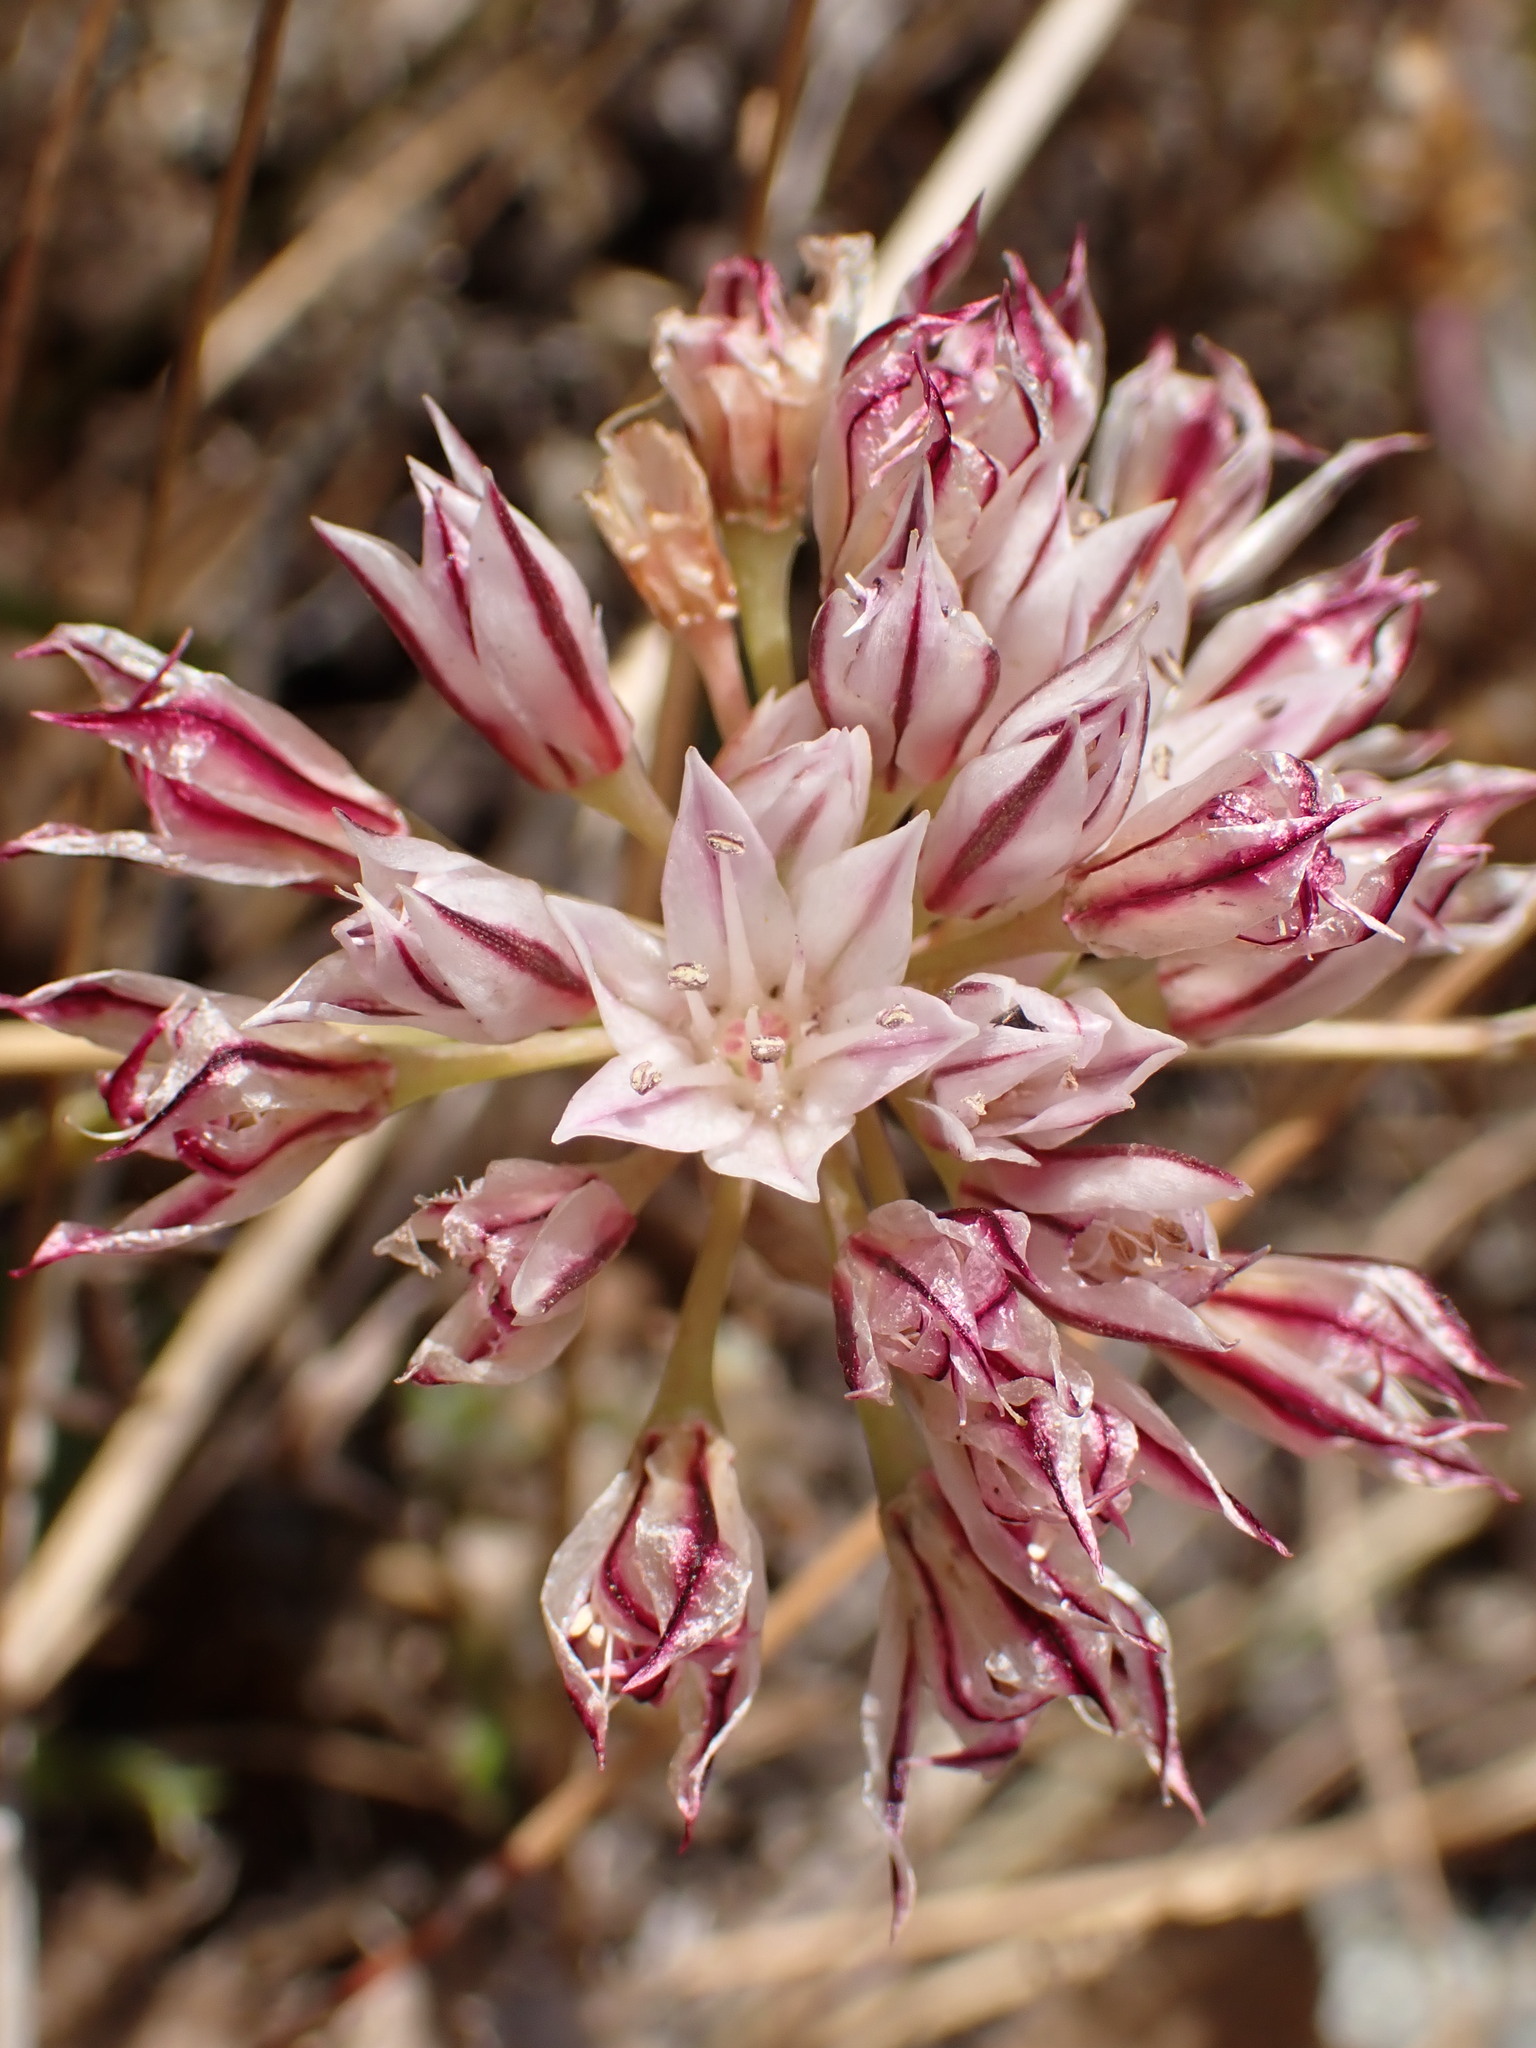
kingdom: Plantae
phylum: Tracheophyta
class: Liliopsida
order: Asparagales
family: Amaryllidaceae
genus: Allium
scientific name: Allium lacunosum
